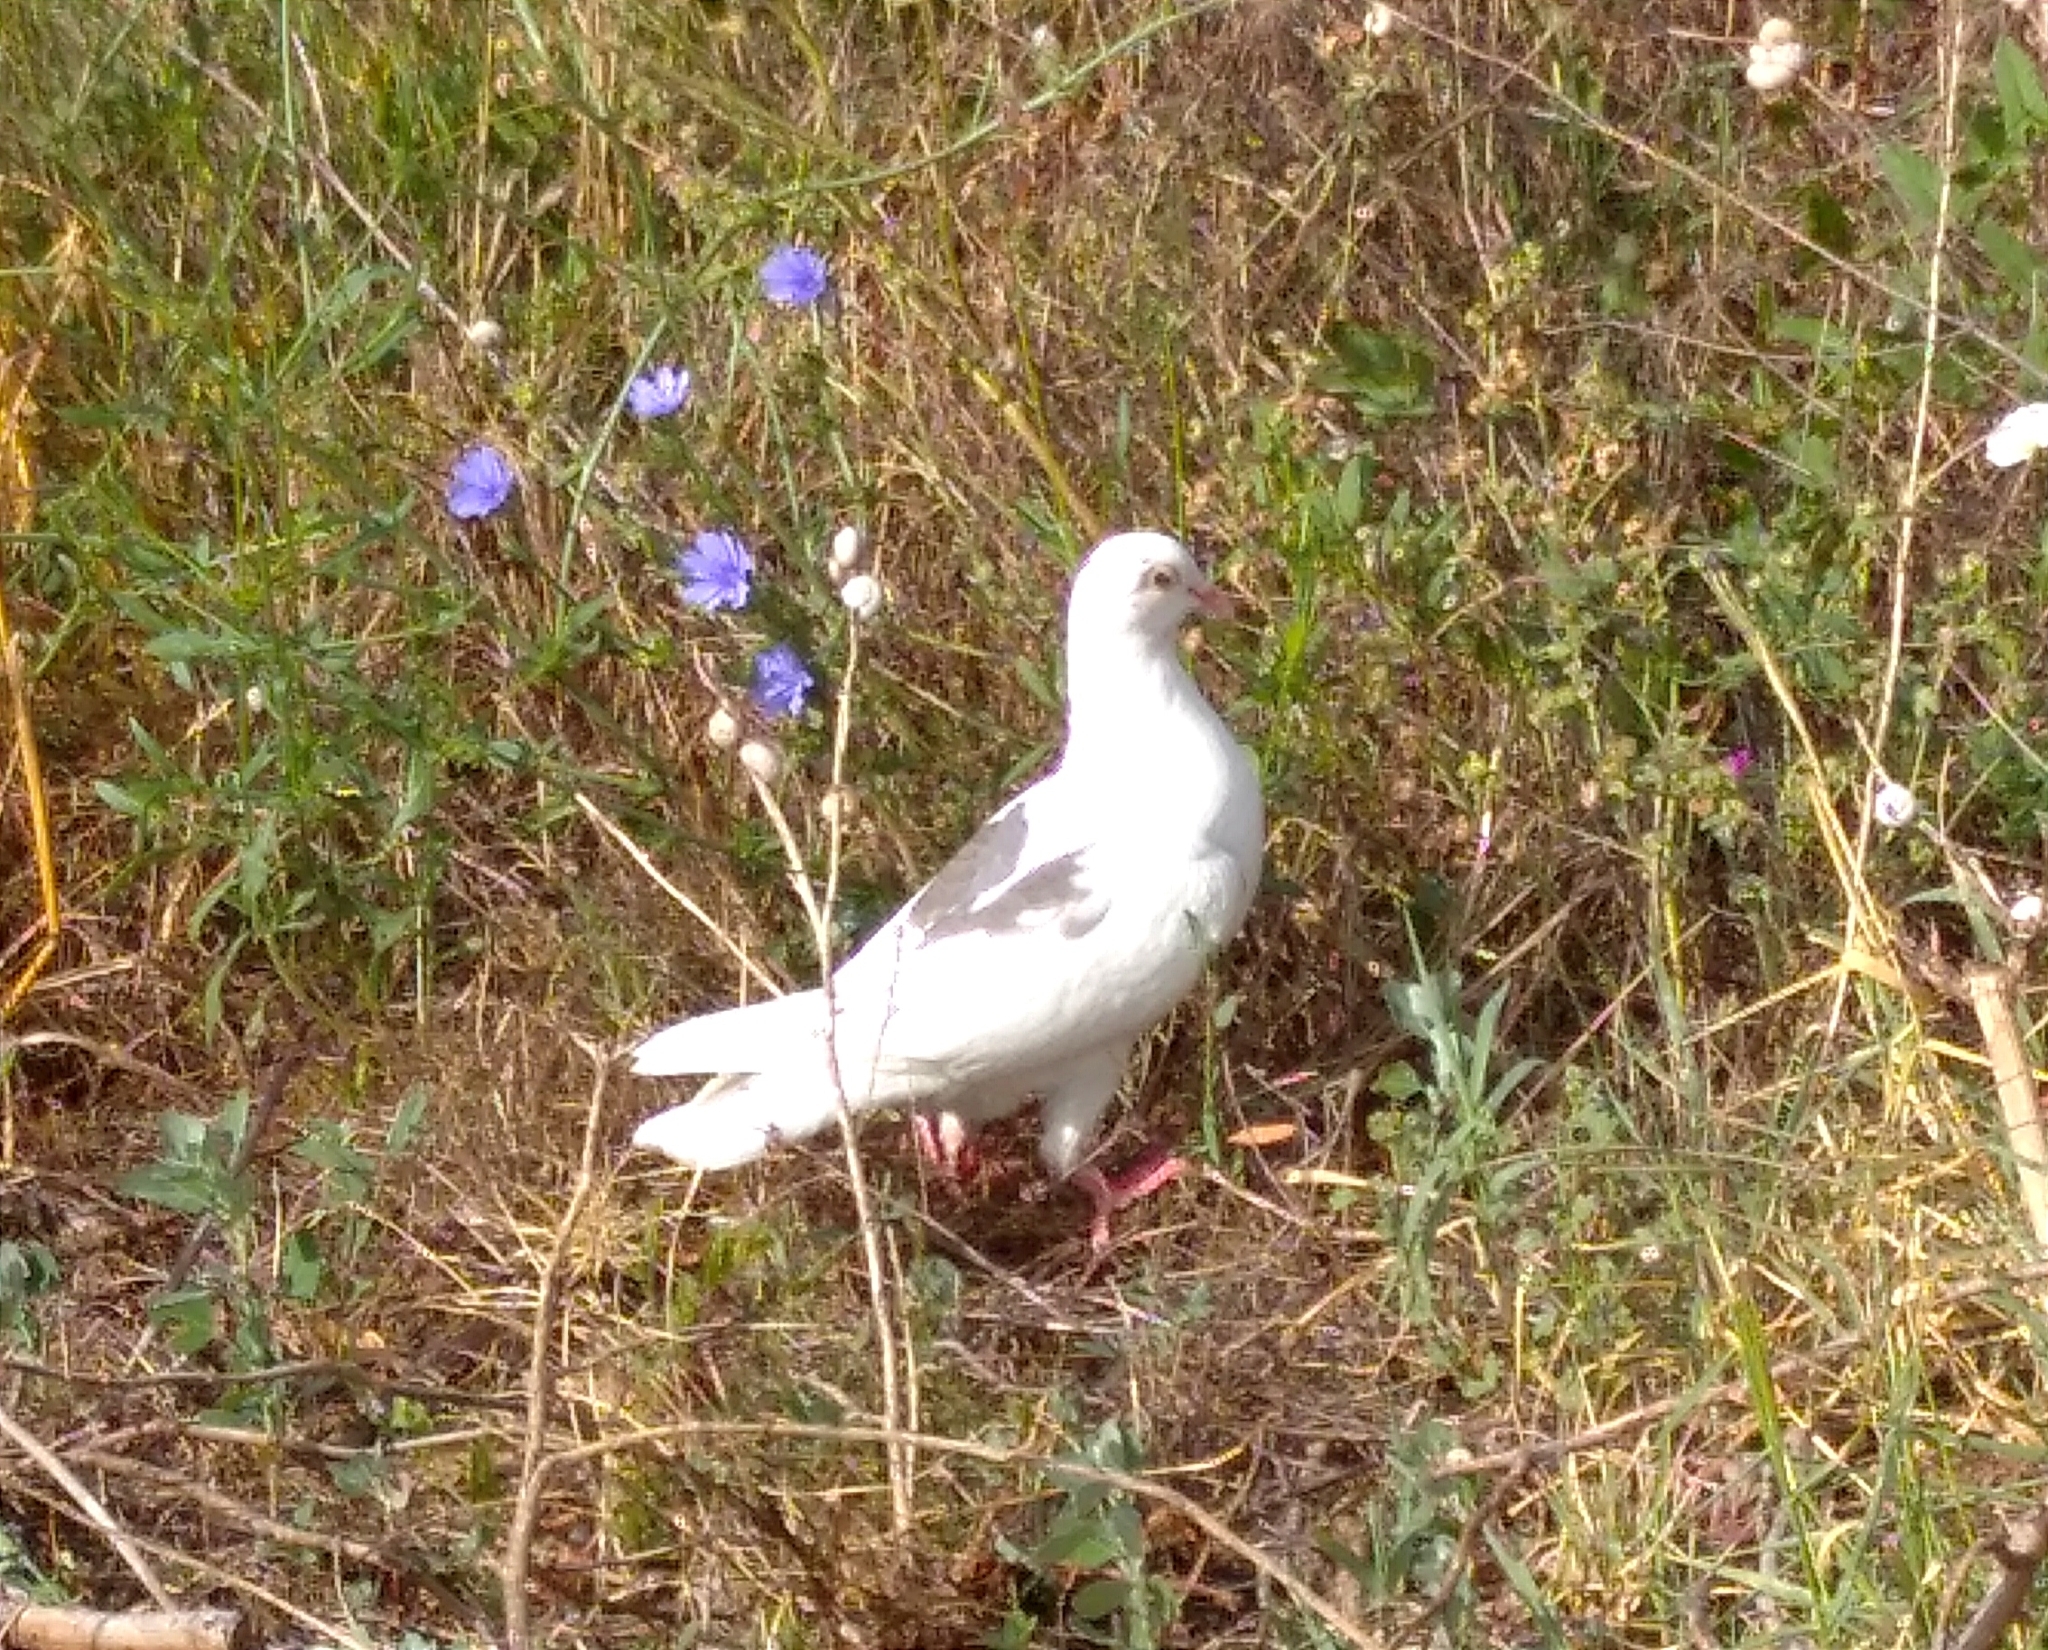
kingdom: Animalia
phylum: Chordata
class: Aves
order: Columbiformes
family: Columbidae
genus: Columba
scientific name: Columba livia
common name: Rock pigeon
